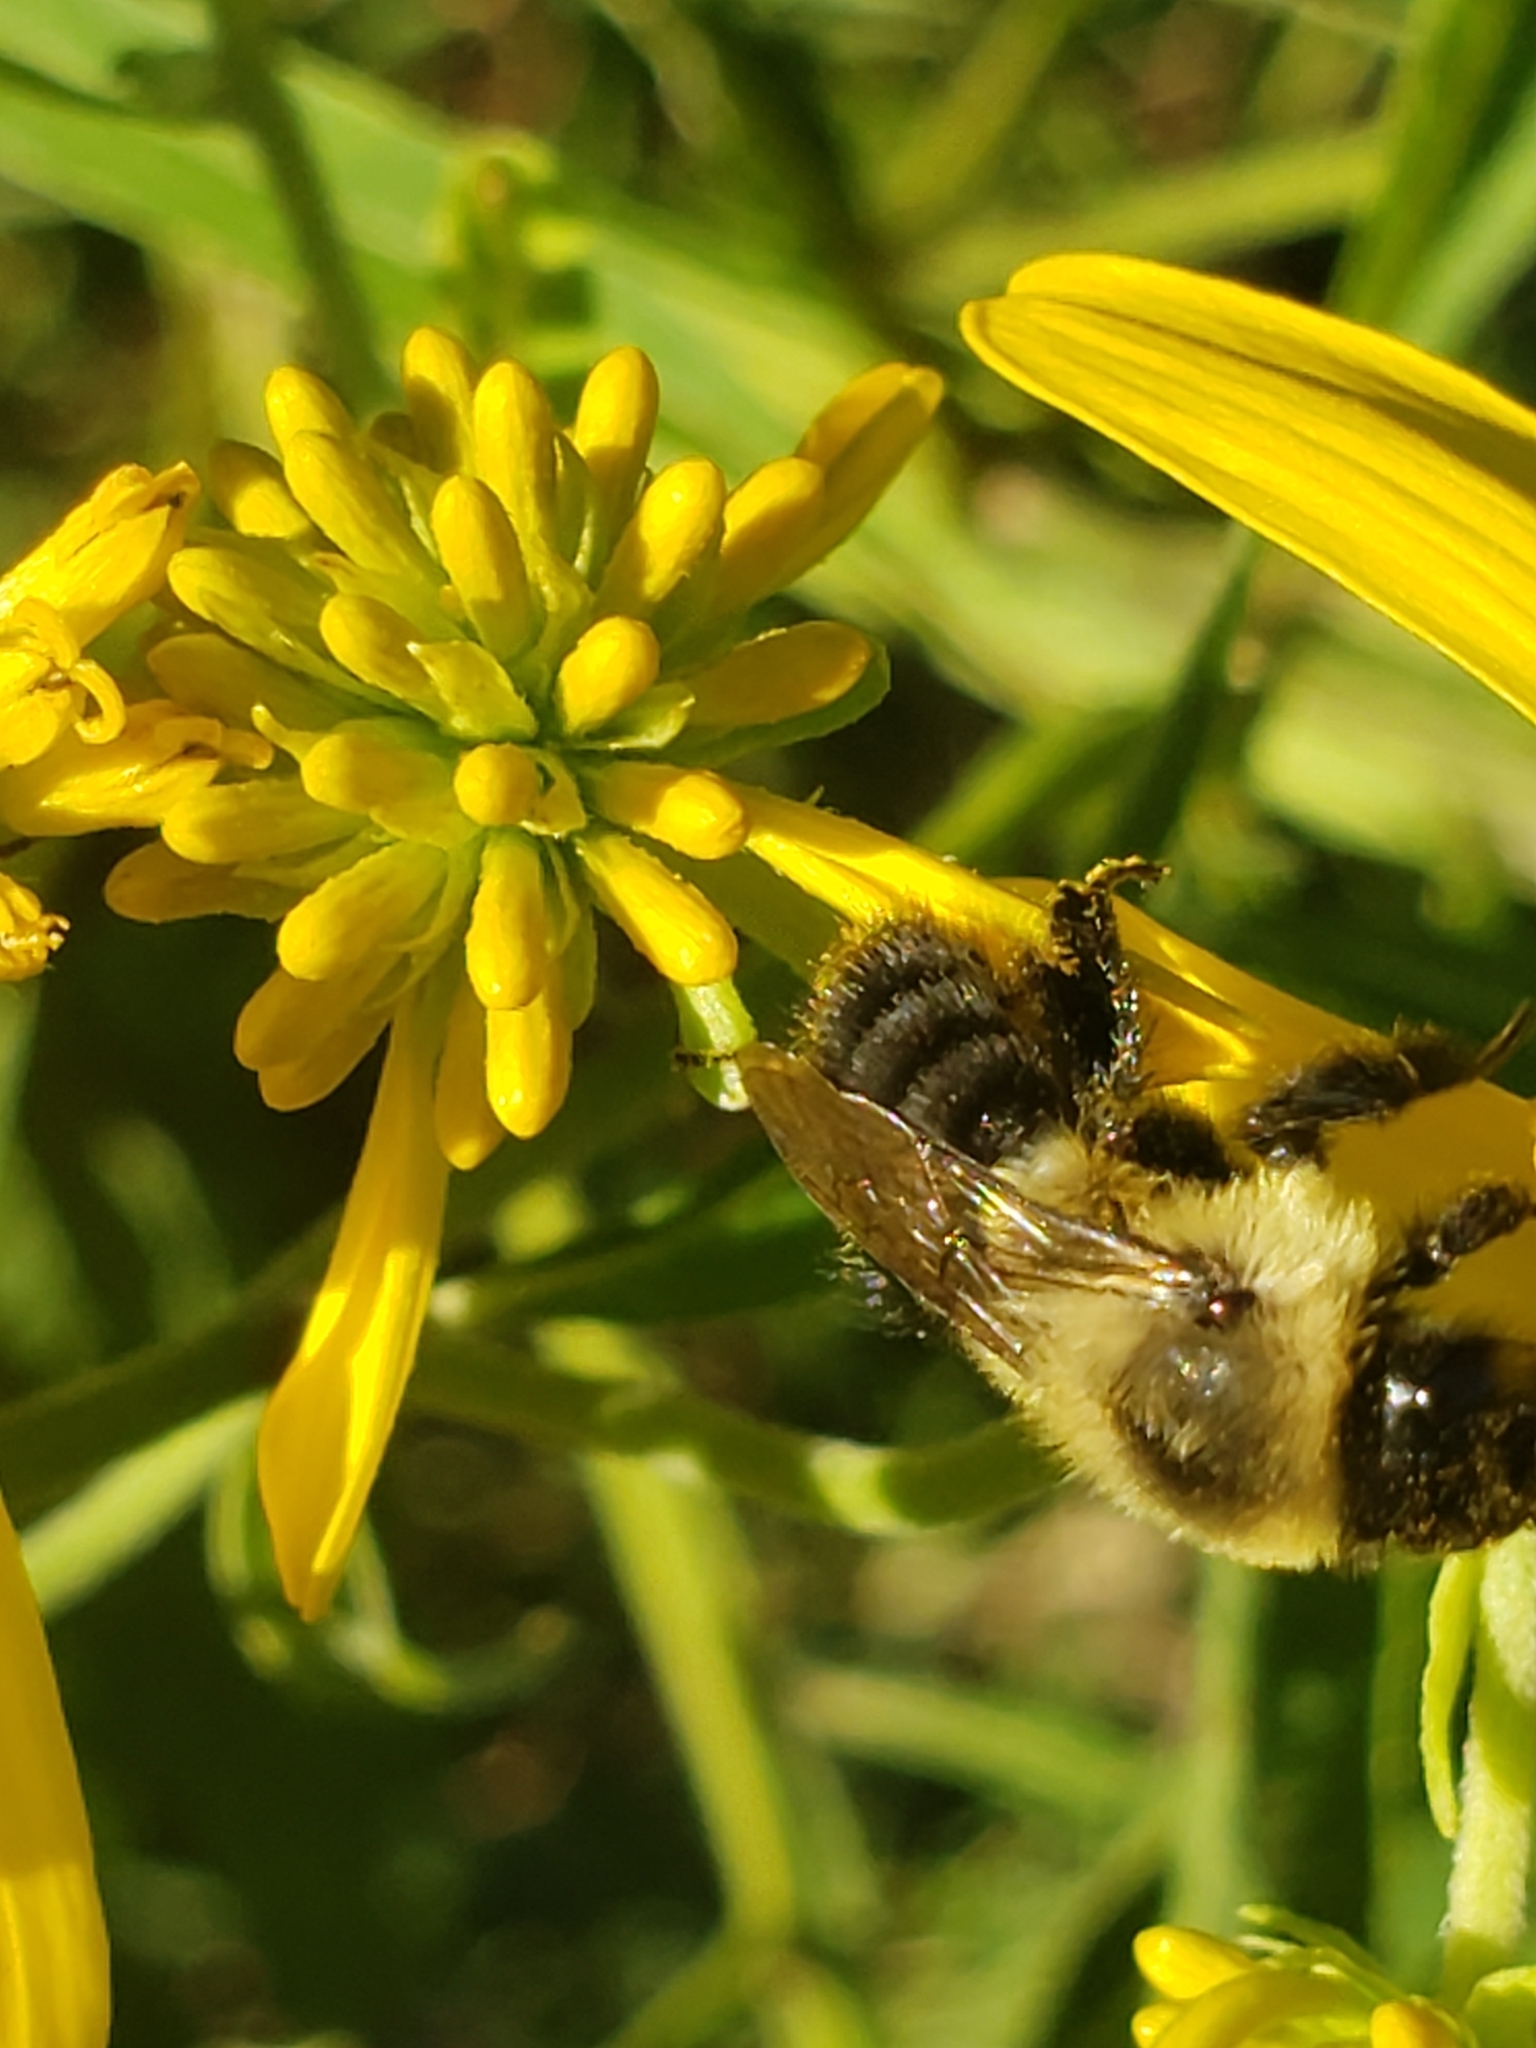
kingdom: Animalia
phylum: Arthropoda
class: Insecta
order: Hymenoptera
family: Apidae
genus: Bombus
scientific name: Bombus impatiens
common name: Common eastern bumble bee
